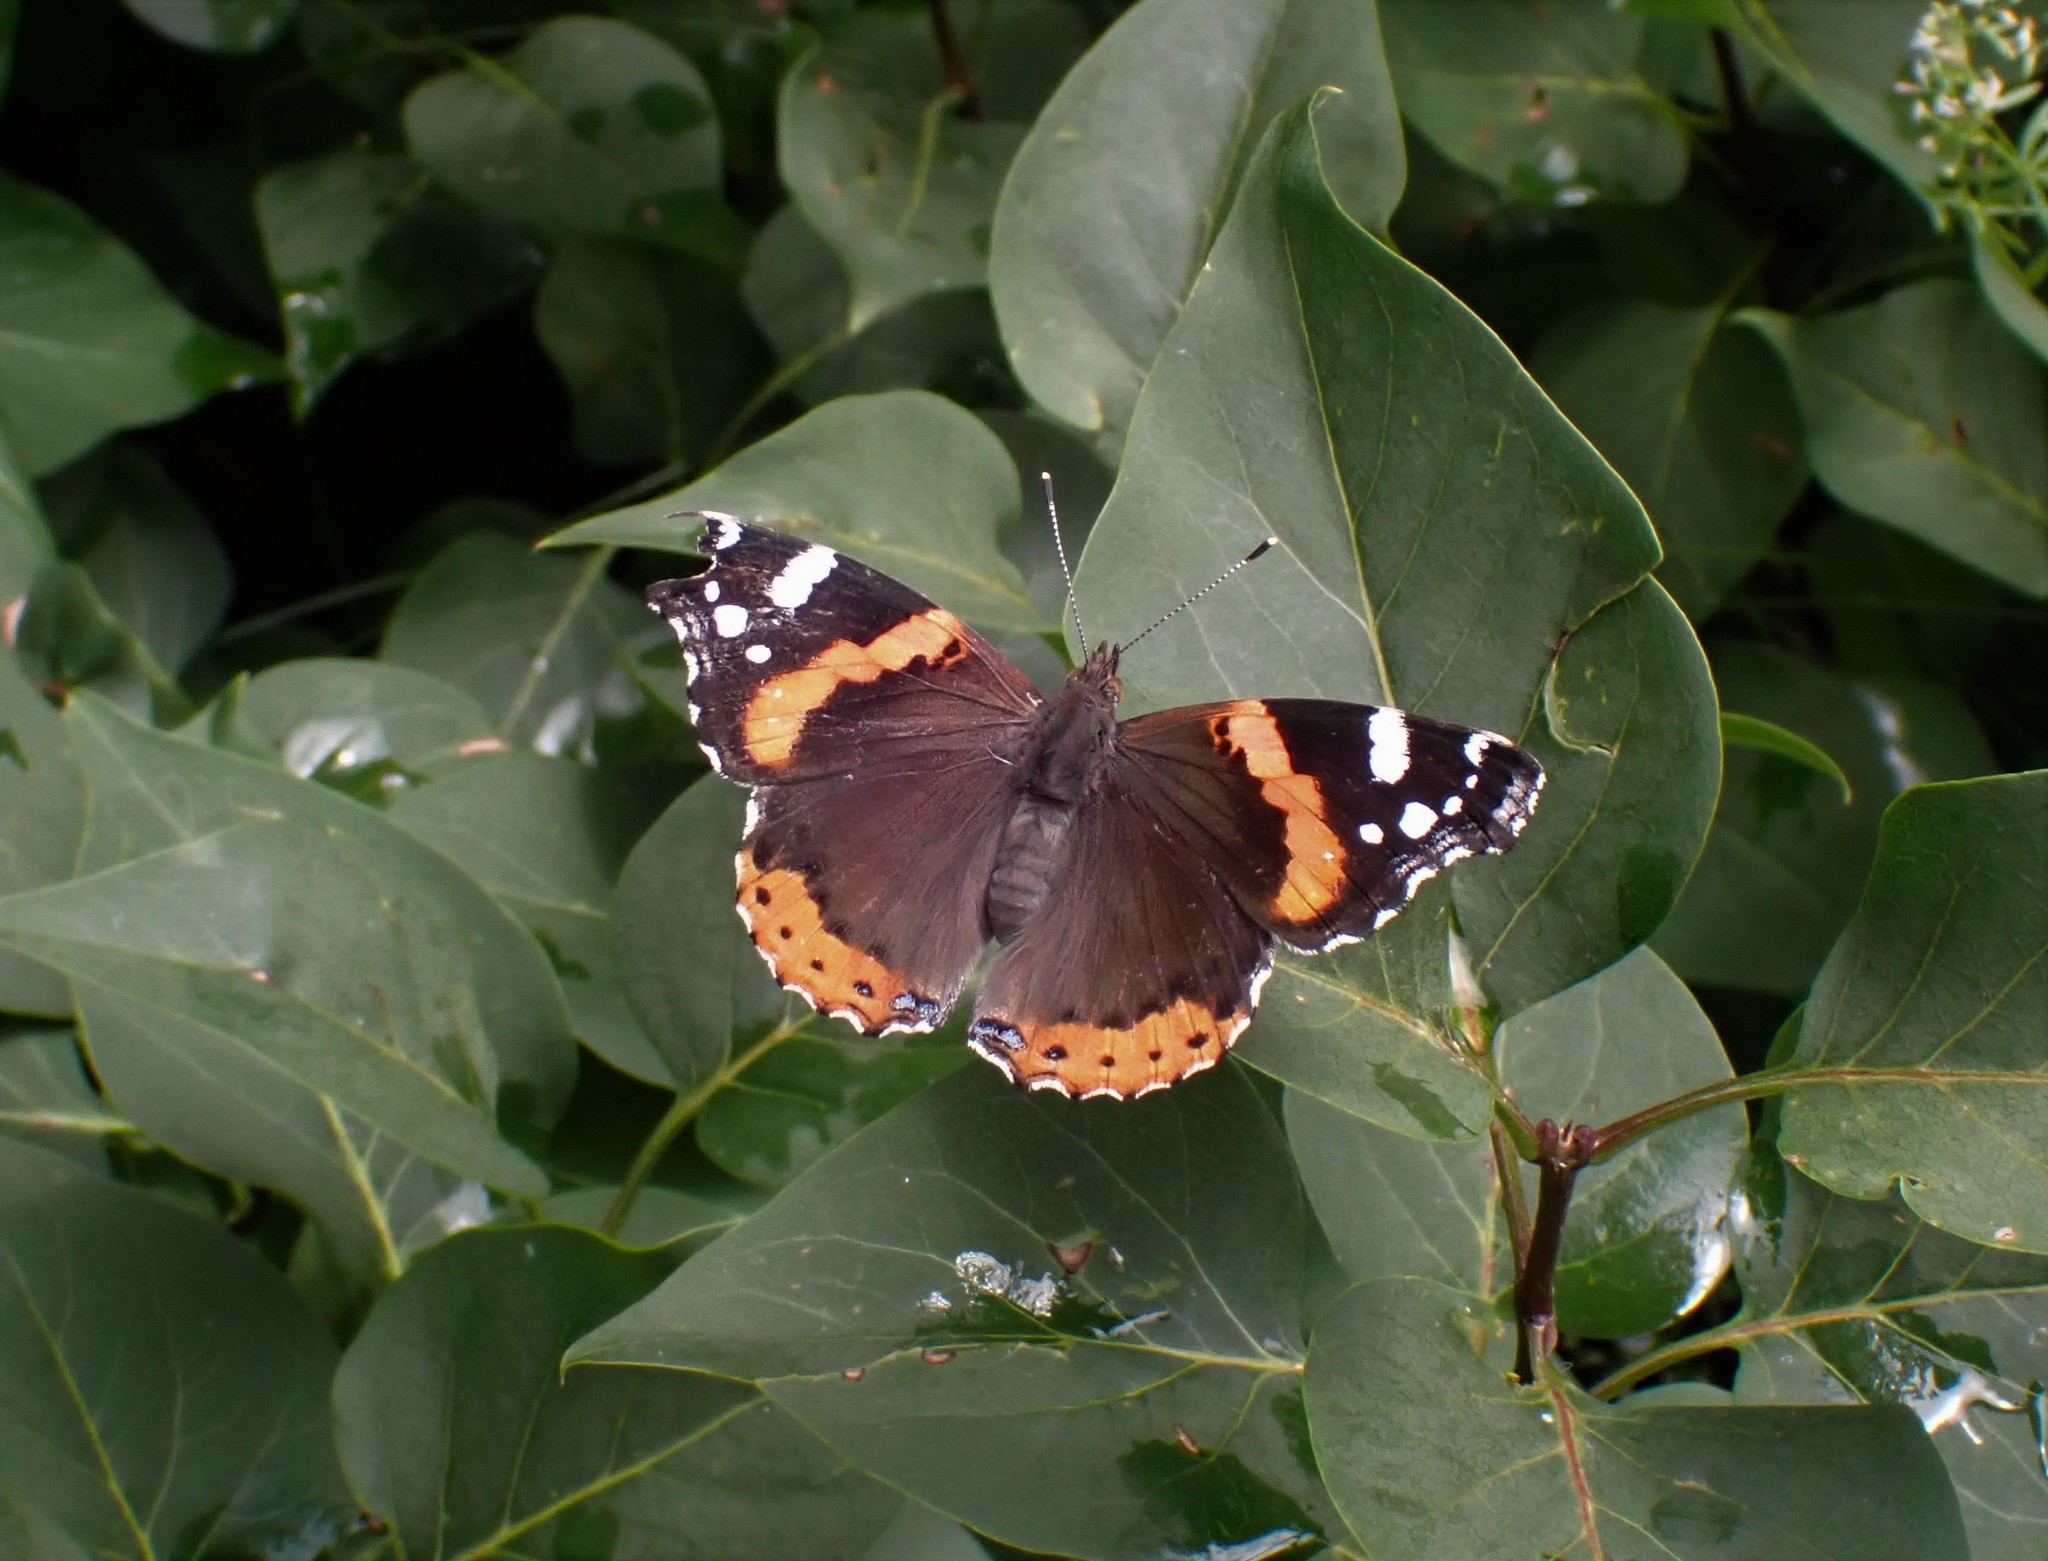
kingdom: Animalia
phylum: Arthropoda
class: Insecta
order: Lepidoptera
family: Nymphalidae
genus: Vanessa
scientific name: Vanessa atalanta
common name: Red admiral
